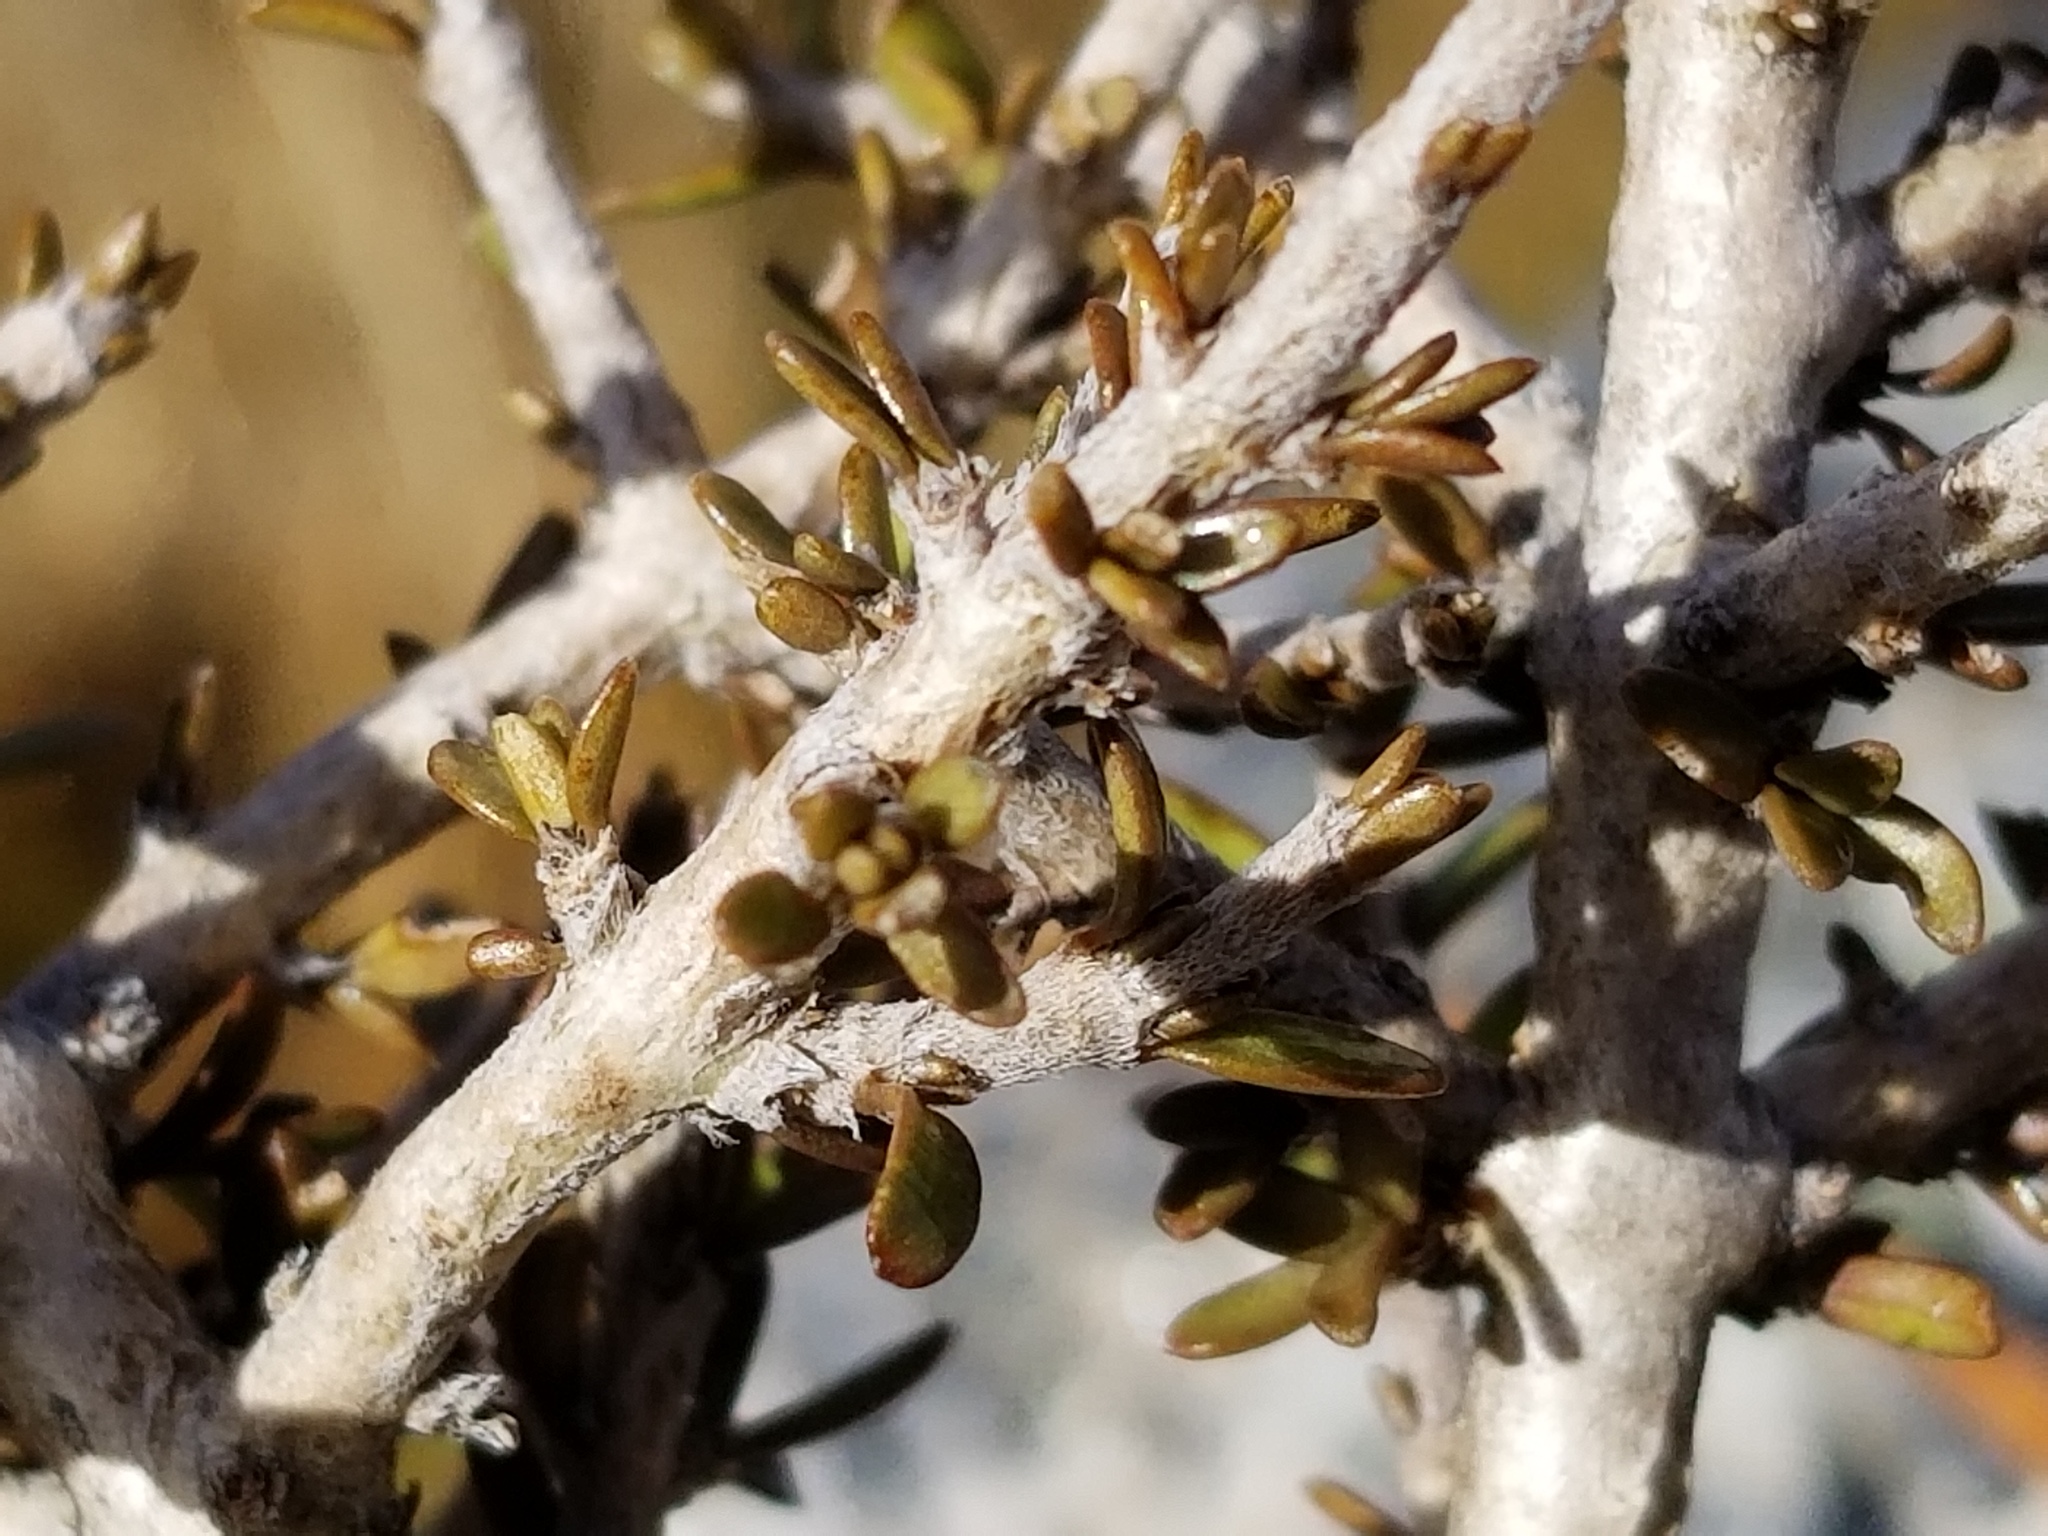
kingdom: Plantae
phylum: Tracheophyta
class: Magnoliopsida
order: Gentianales
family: Rubiaceae
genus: Coprosma
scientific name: Coprosma cheesemanii
